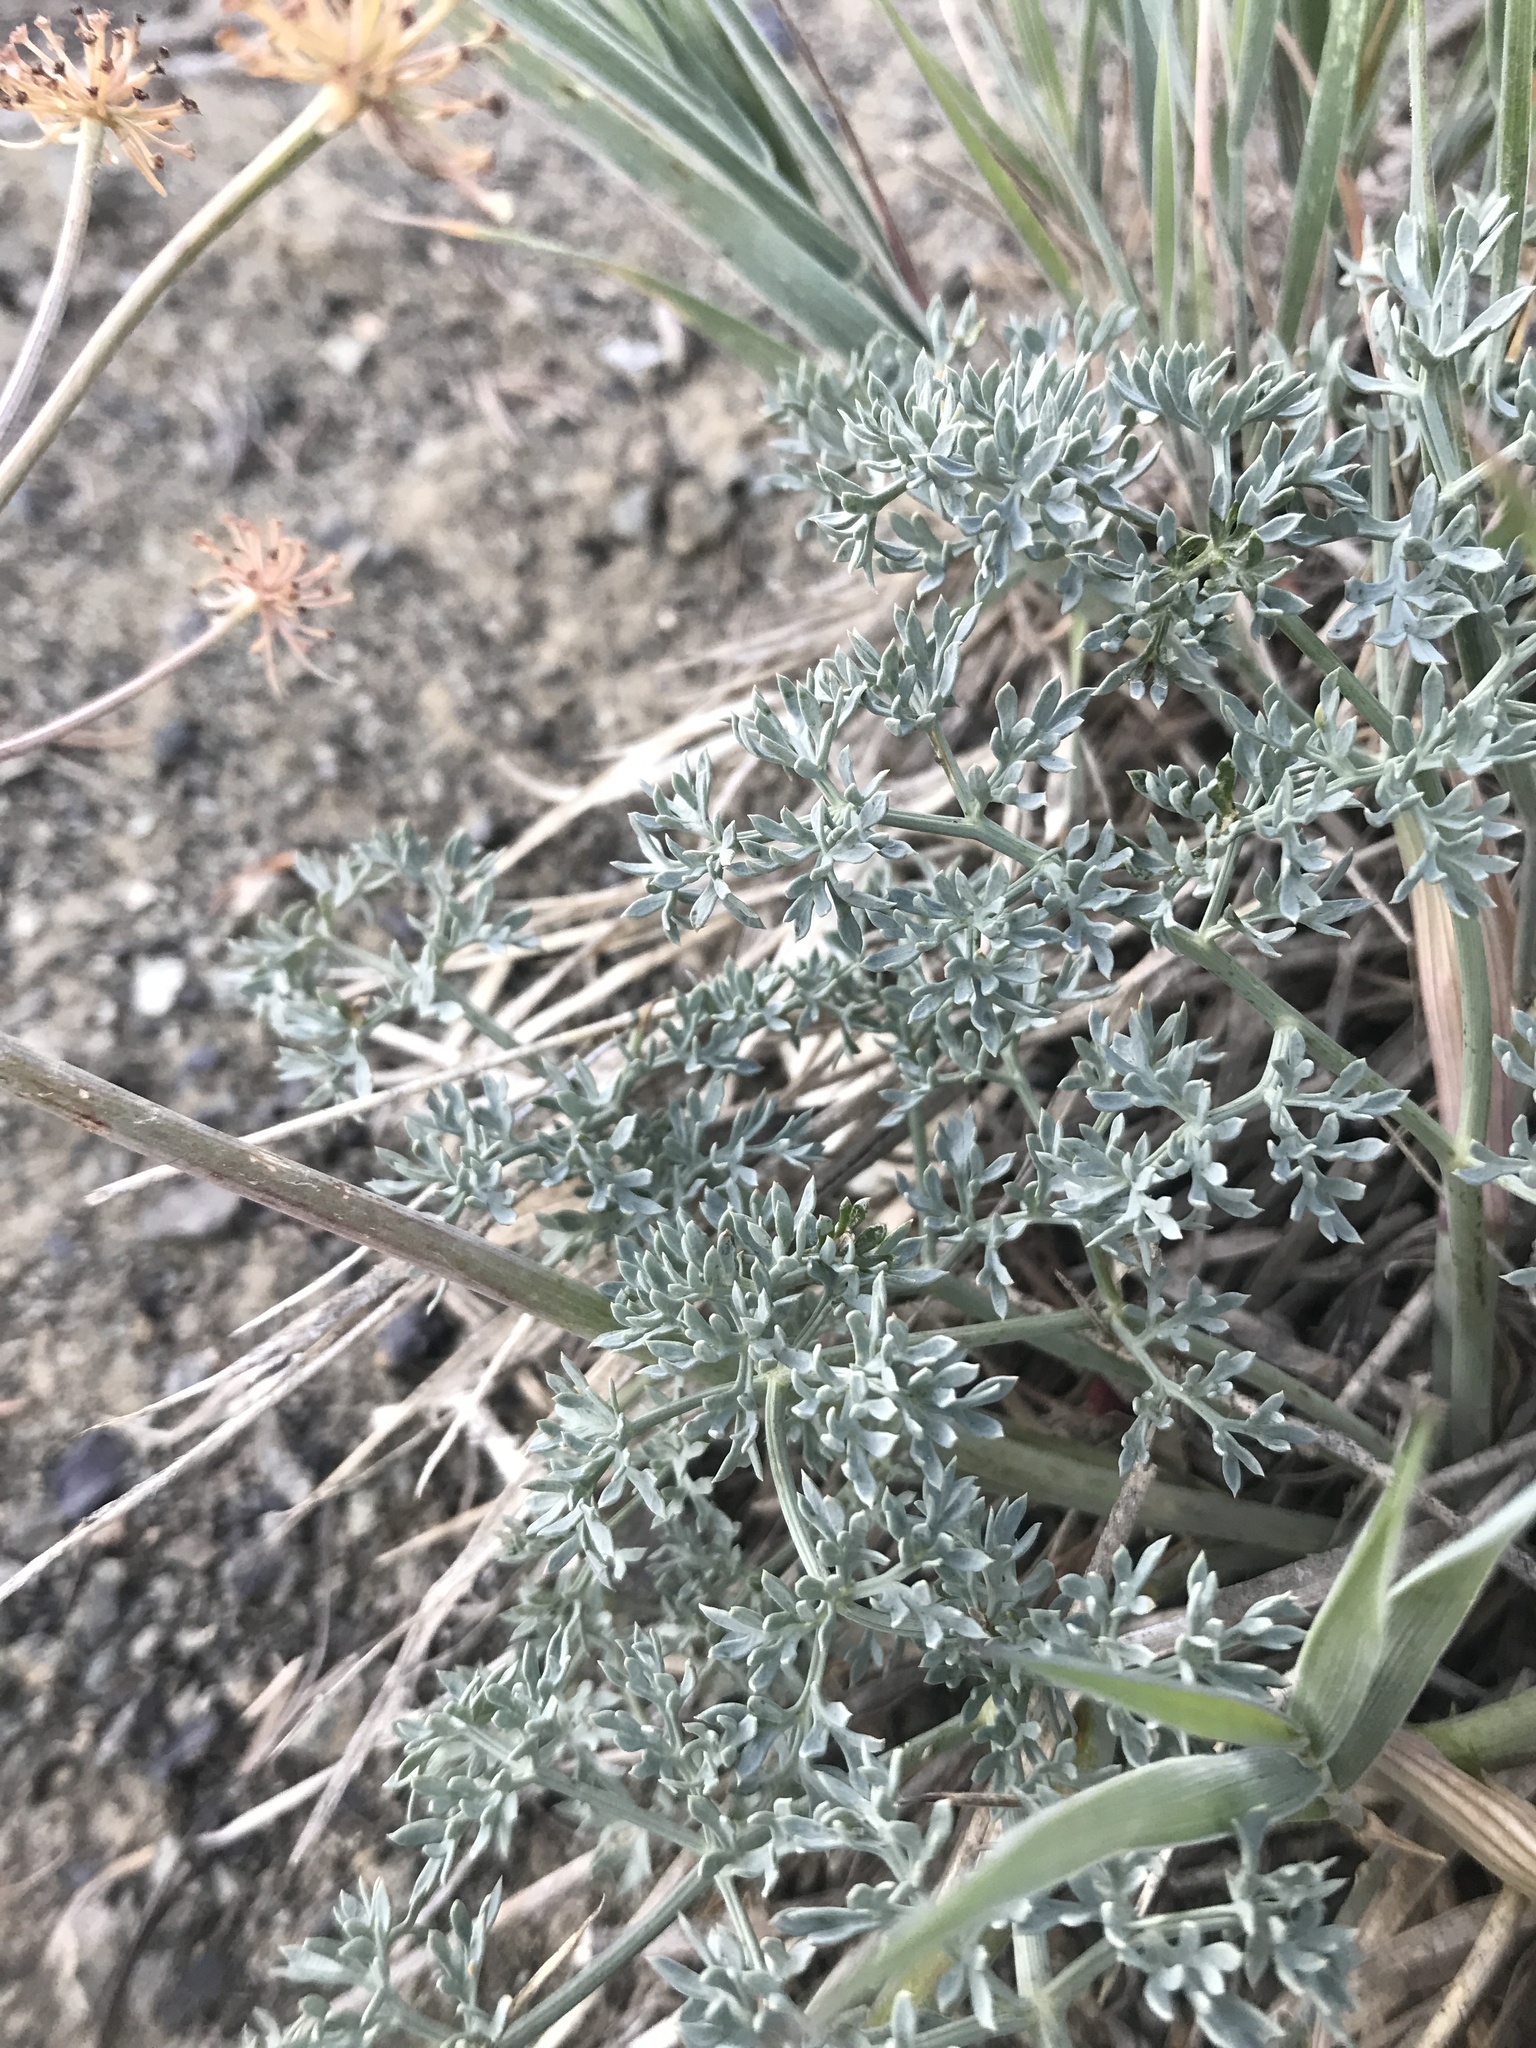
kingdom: Plantae
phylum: Tracheophyta
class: Magnoliopsida
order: Apiales
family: Apiaceae
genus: Lomatium
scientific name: Lomatium cuspidatum
